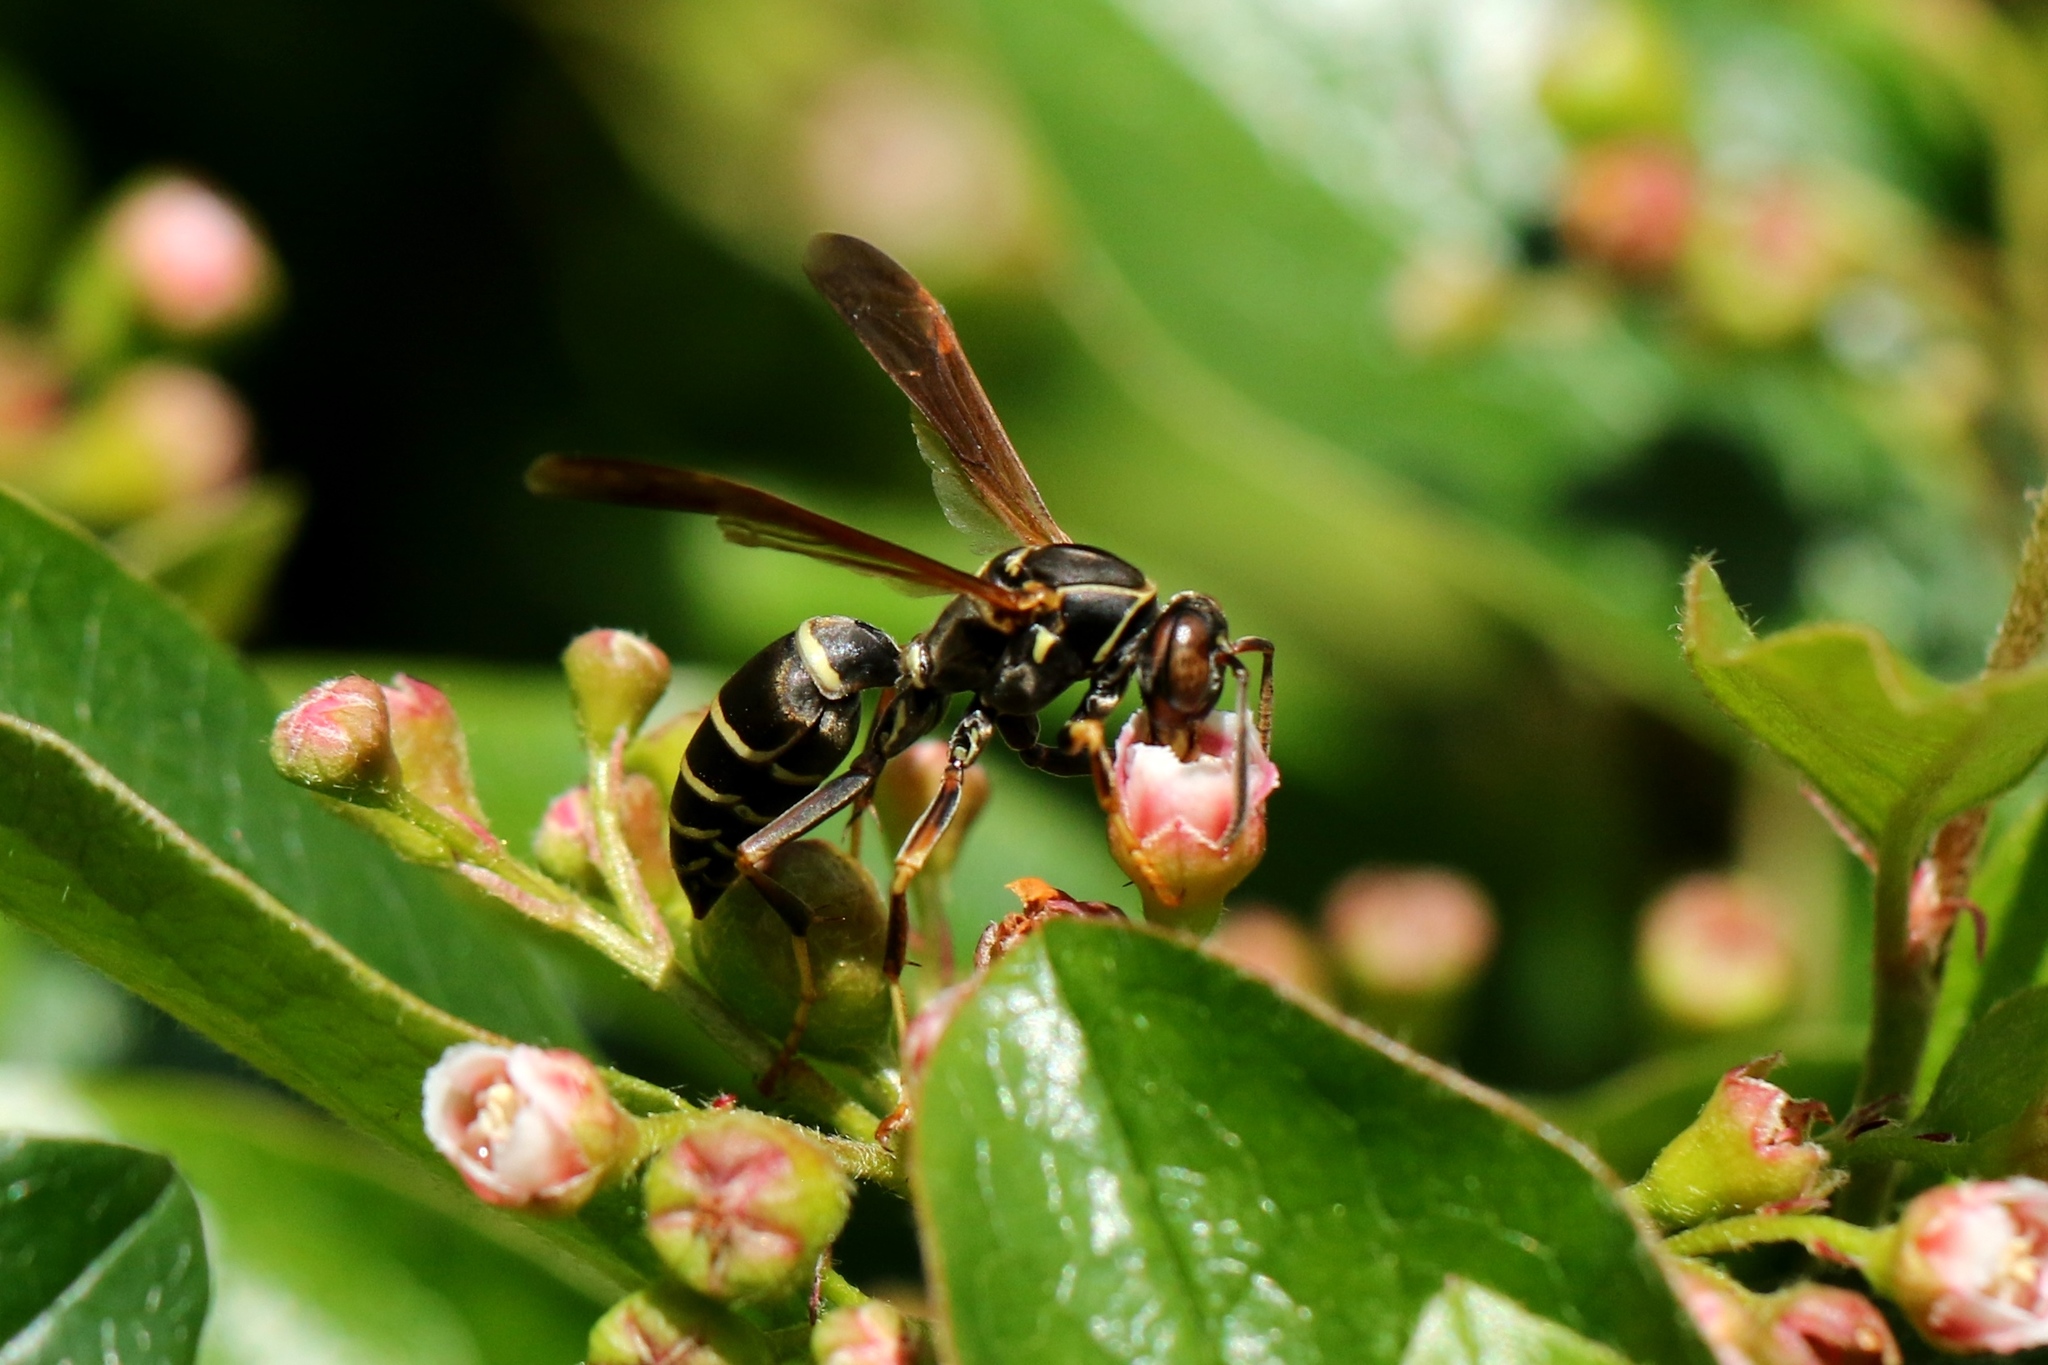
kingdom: Animalia
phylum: Arthropoda
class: Insecta
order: Hymenoptera
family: Eumenidae
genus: Polistes
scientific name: Polistes fuscatus
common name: Dark paper wasp
